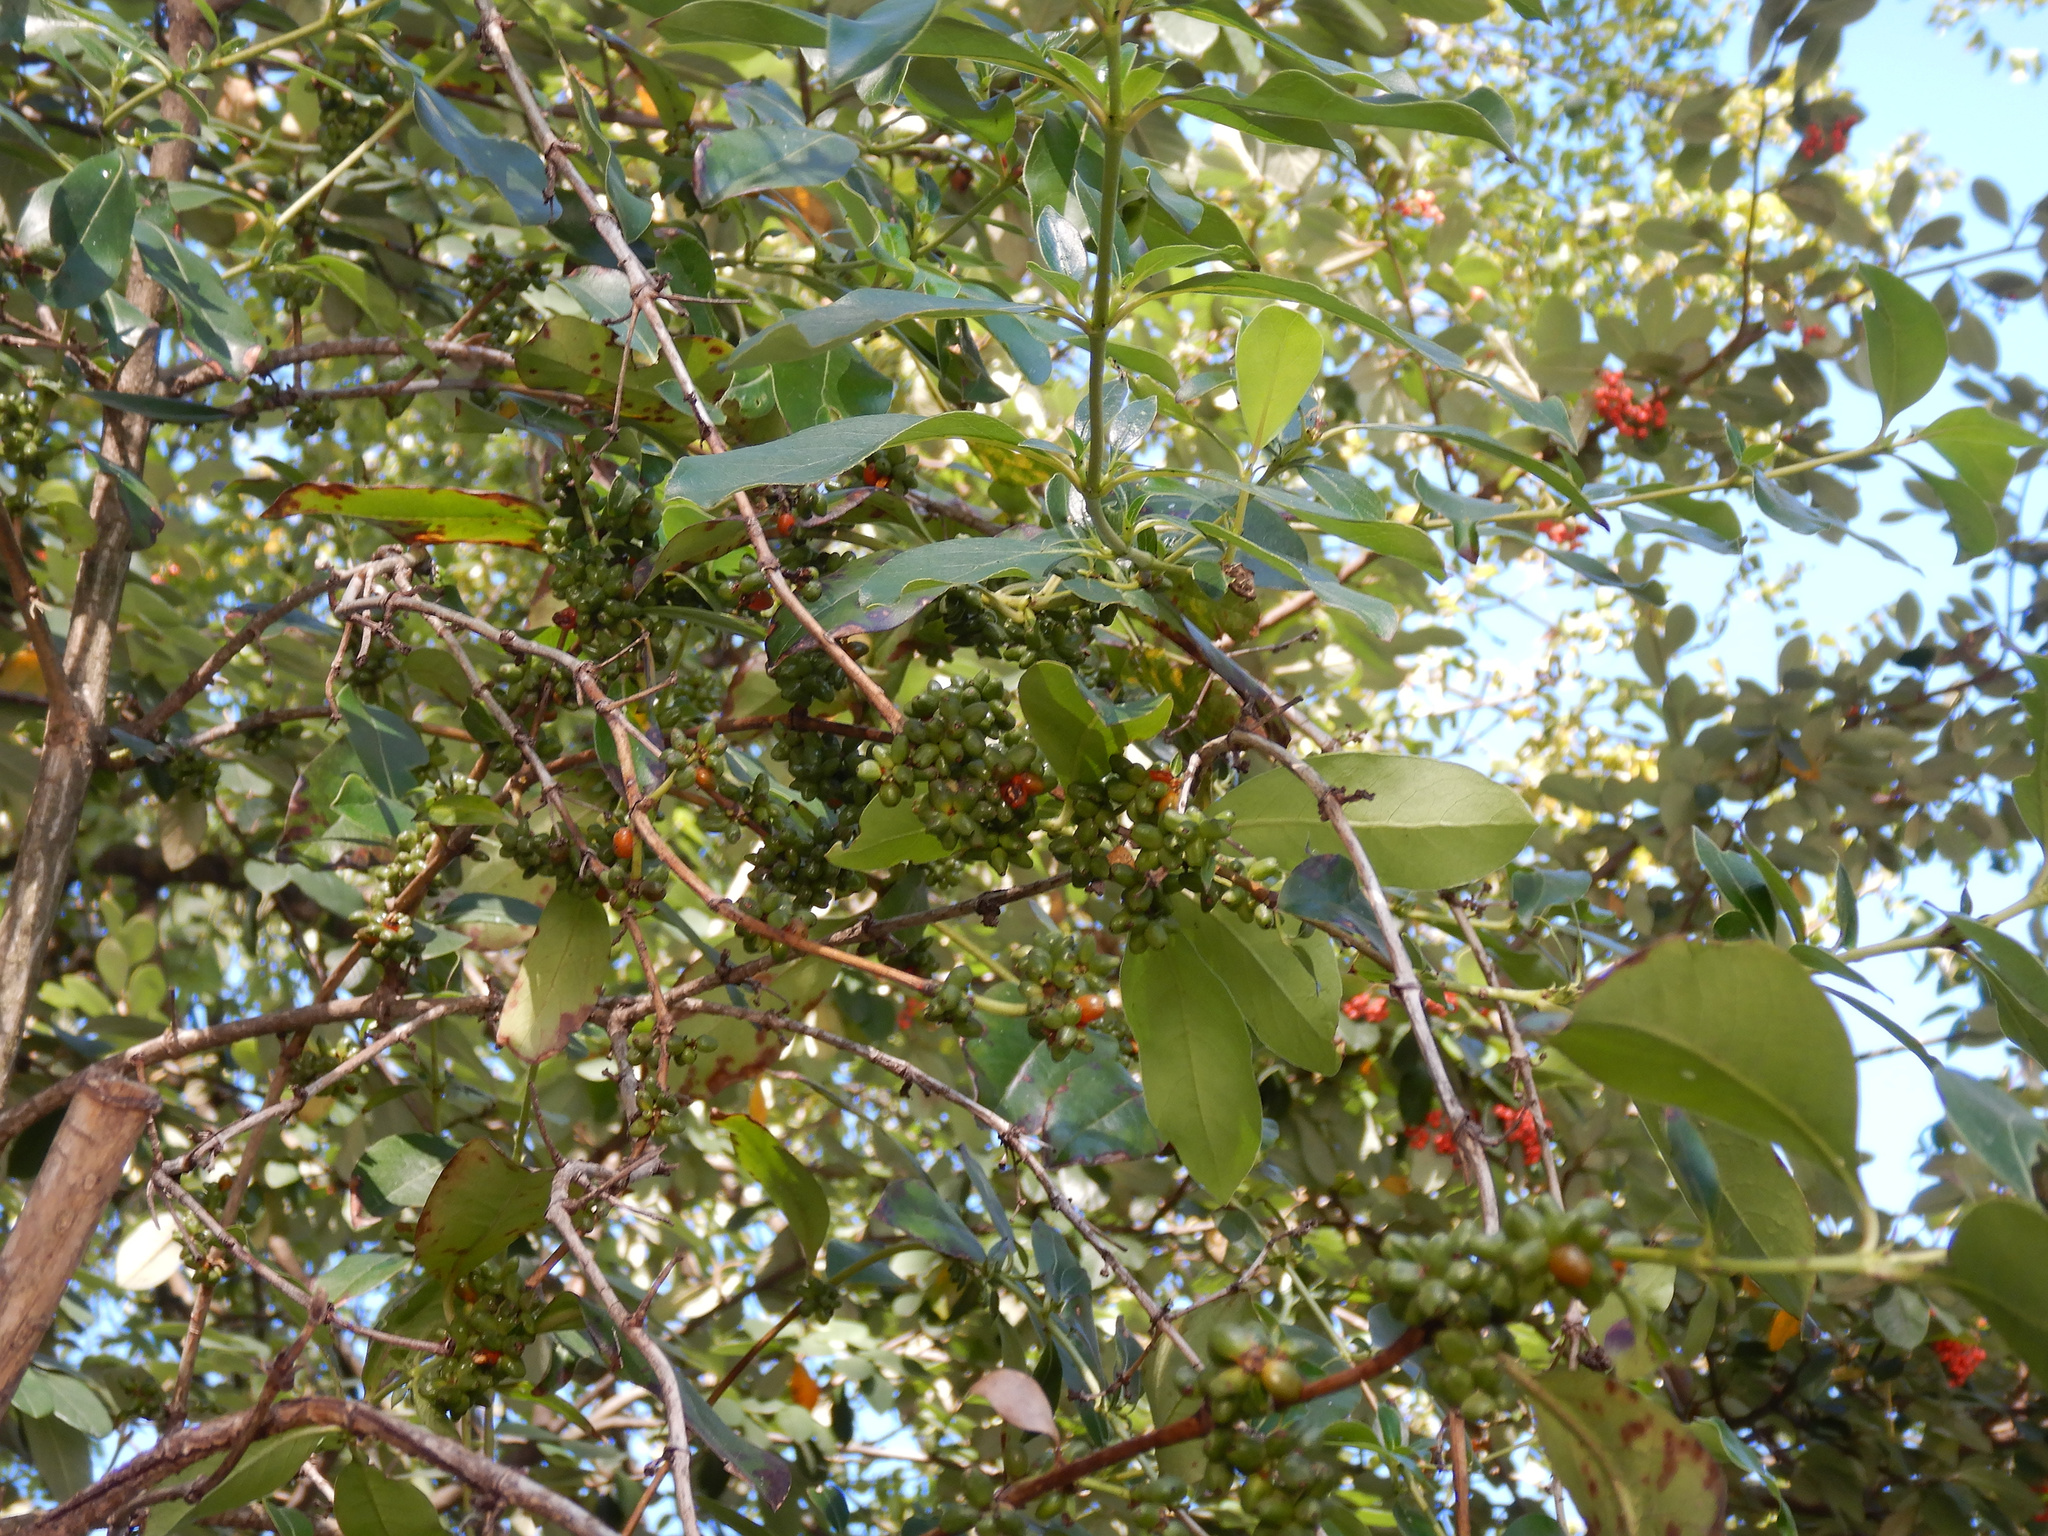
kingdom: Plantae
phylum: Tracheophyta
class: Magnoliopsida
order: Gentianales
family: Rubiaceae
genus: Coprosma
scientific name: Coprosma robusta
